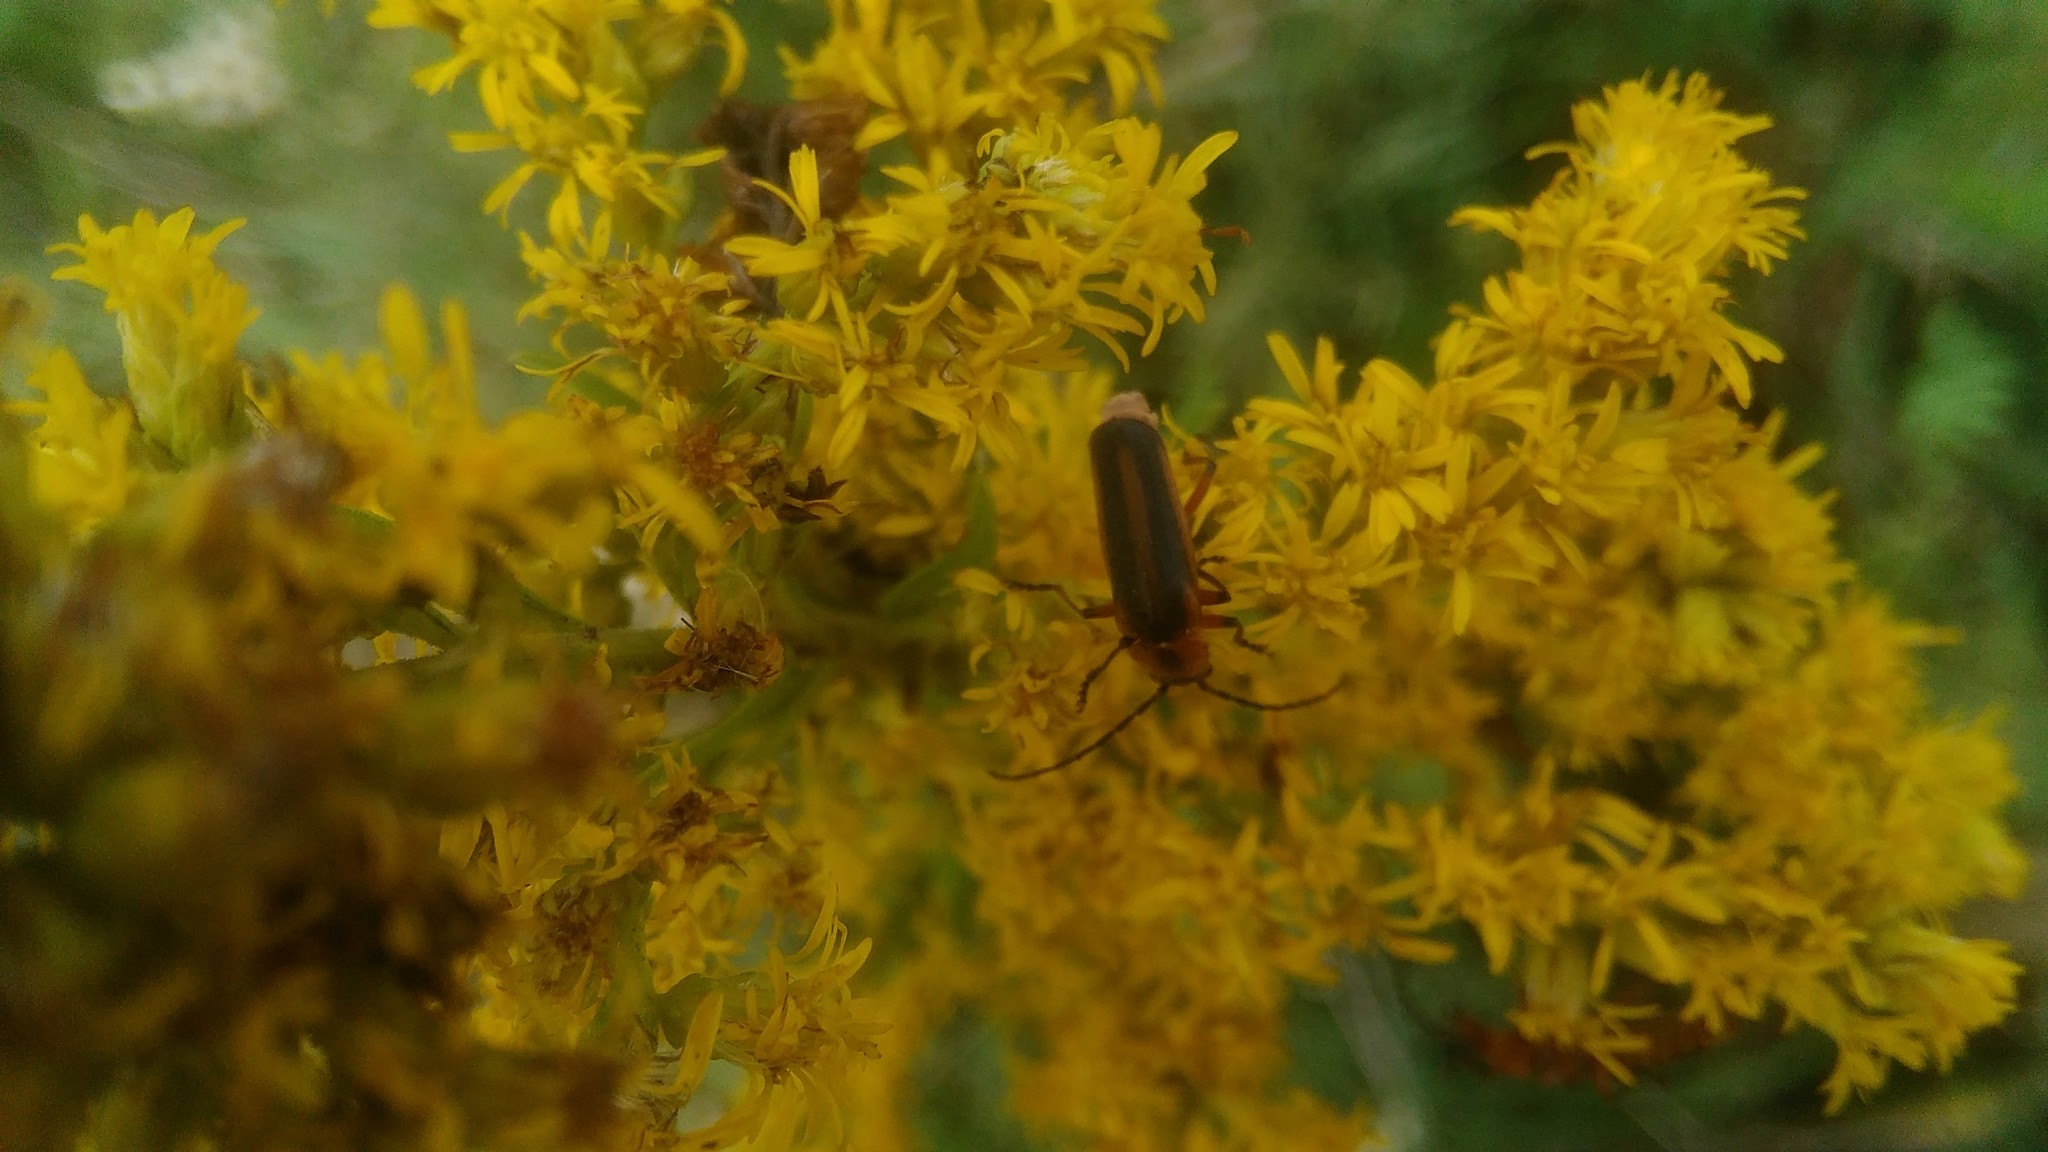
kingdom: Plantae
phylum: Tracheophyta
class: Magnoliopsida
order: Asterales
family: Asteraceae
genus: Solidago
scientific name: Solidago chilensis
